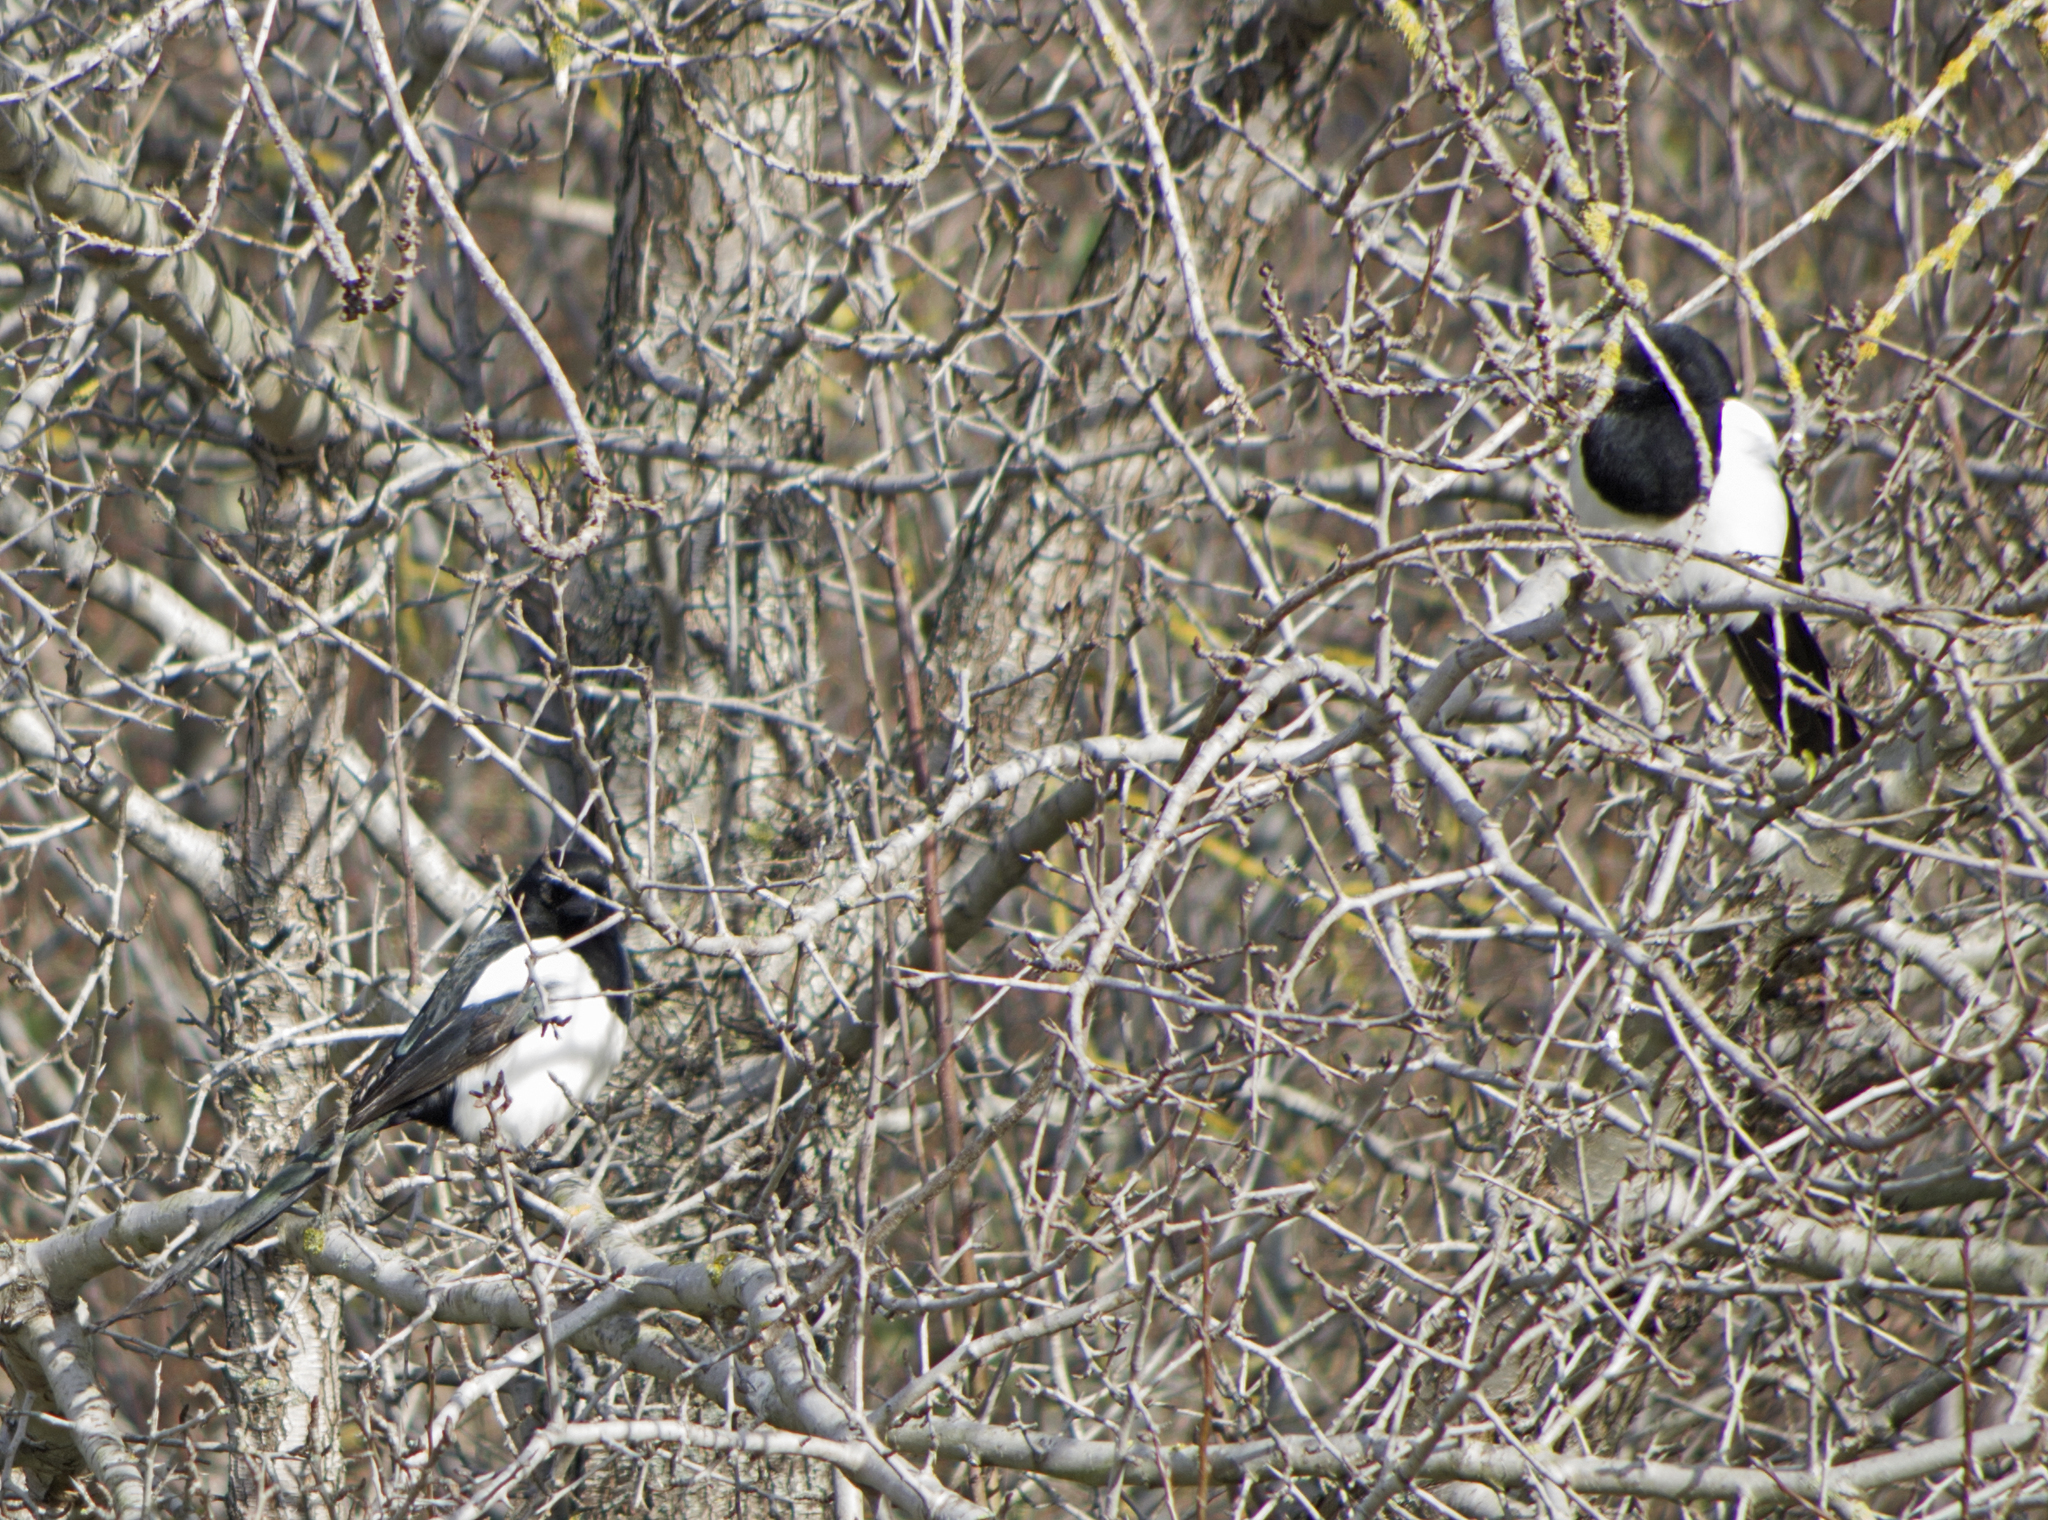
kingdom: Animalia
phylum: Chordata
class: Aves
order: Passeriformes
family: Corvidae
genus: Pica
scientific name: Pica pica
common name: Eurasian magpie
